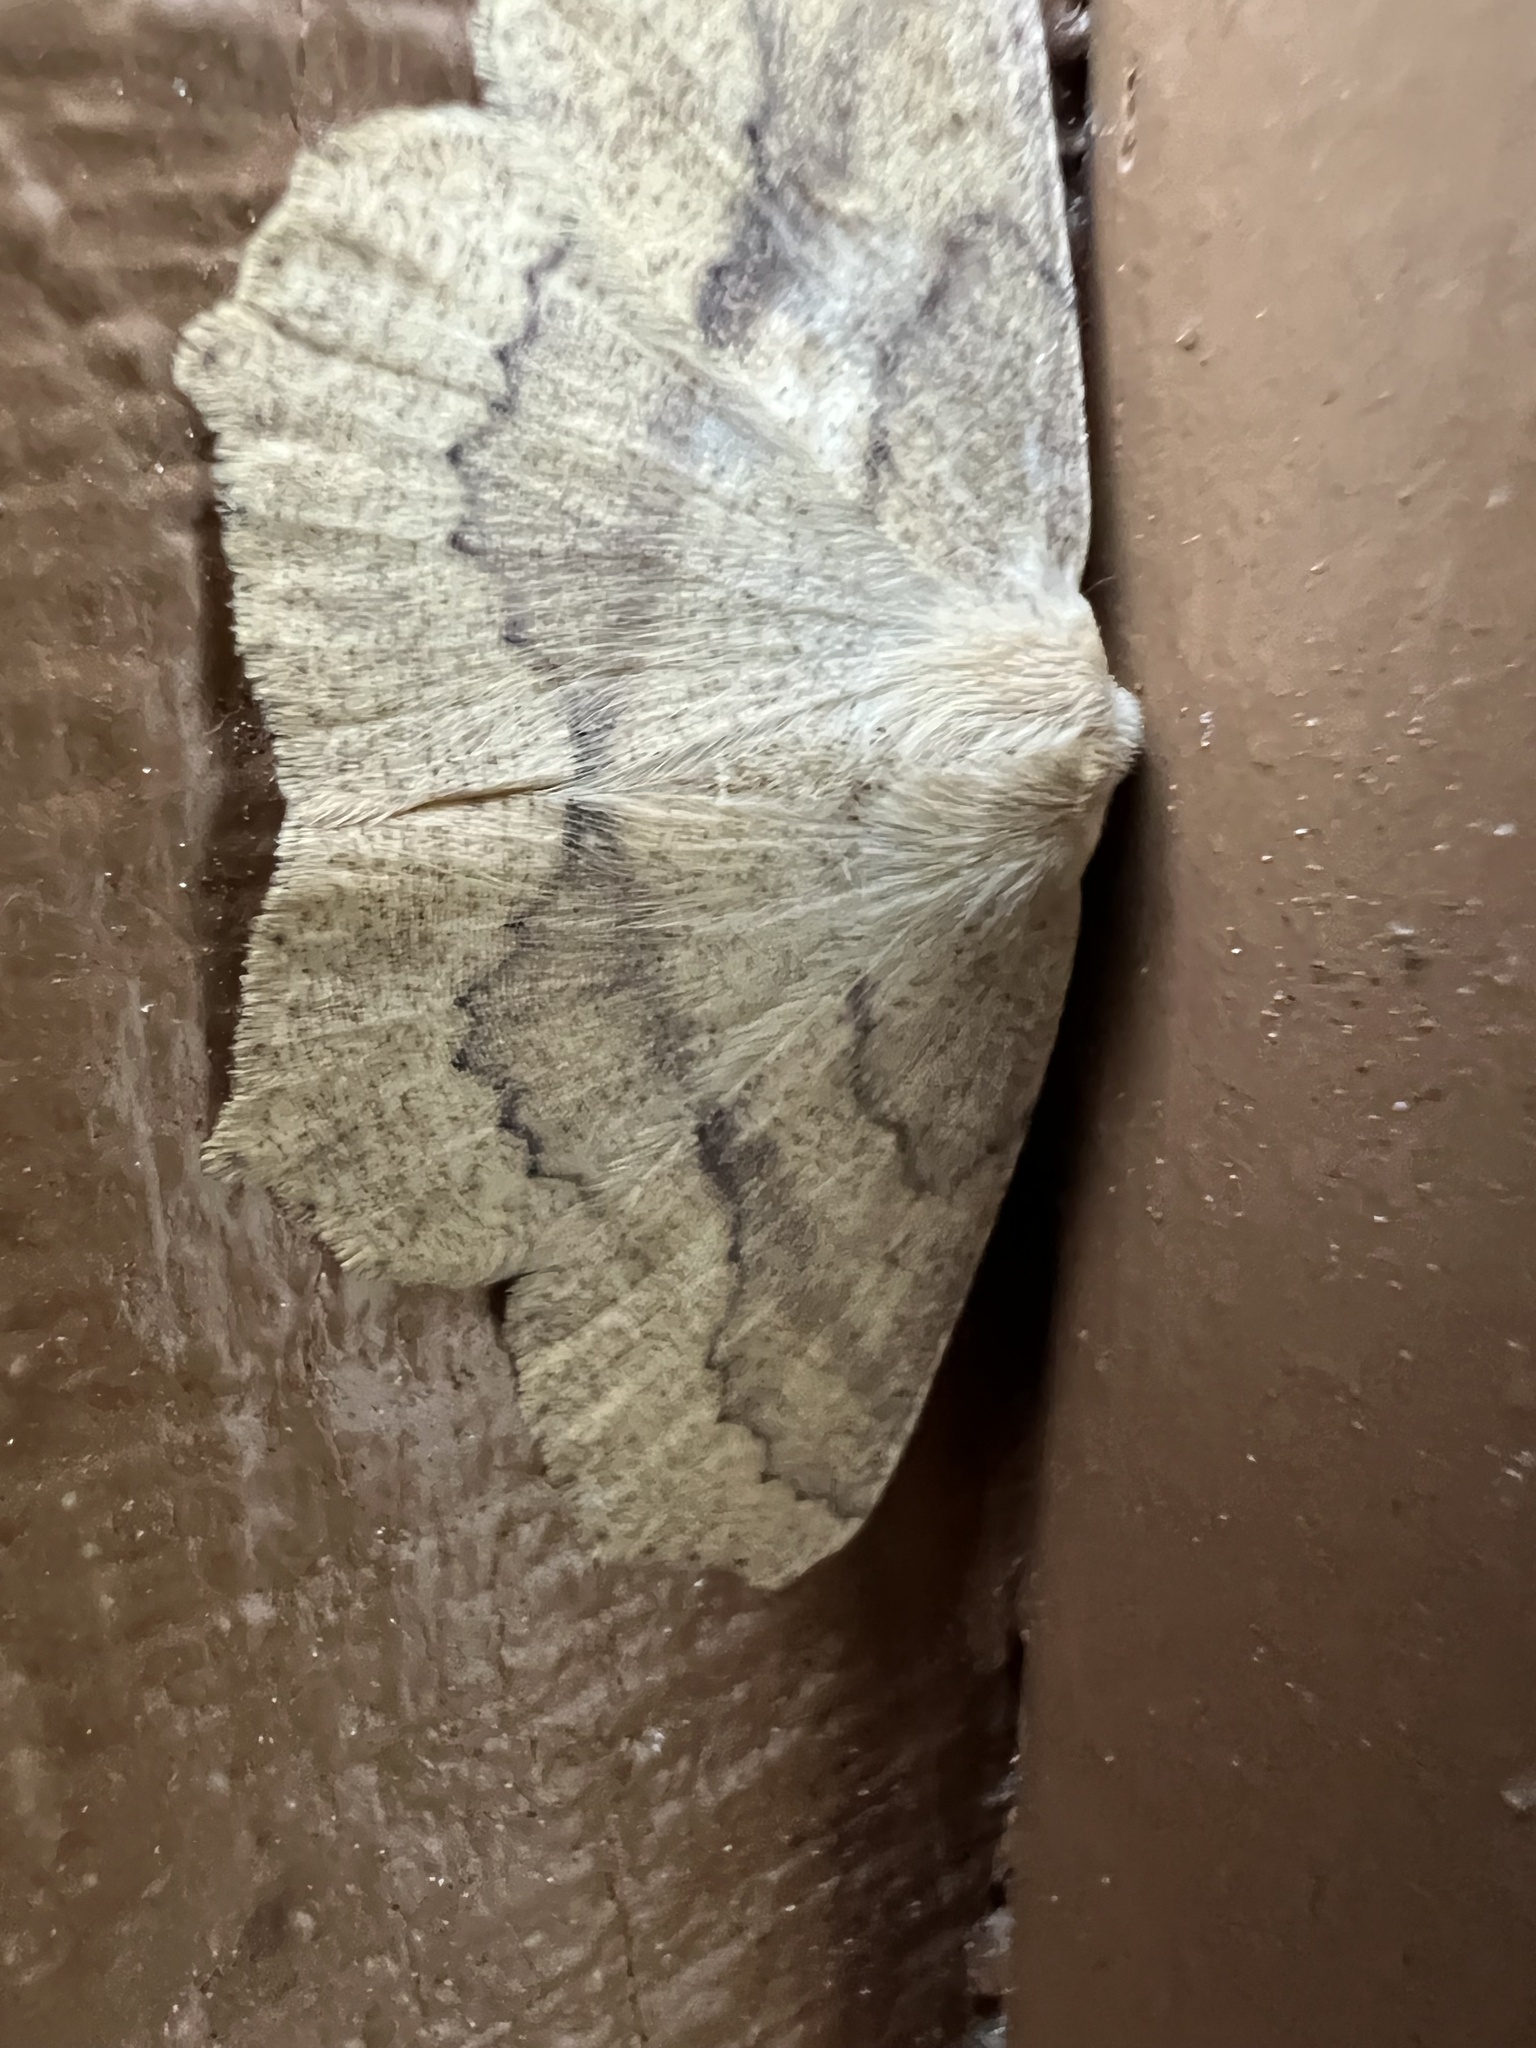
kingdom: Animalia
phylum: Arthropoda
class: Insecta
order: Lepidoptera
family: Geometridae
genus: Sabulodes
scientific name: Sabulodes aegrotata
